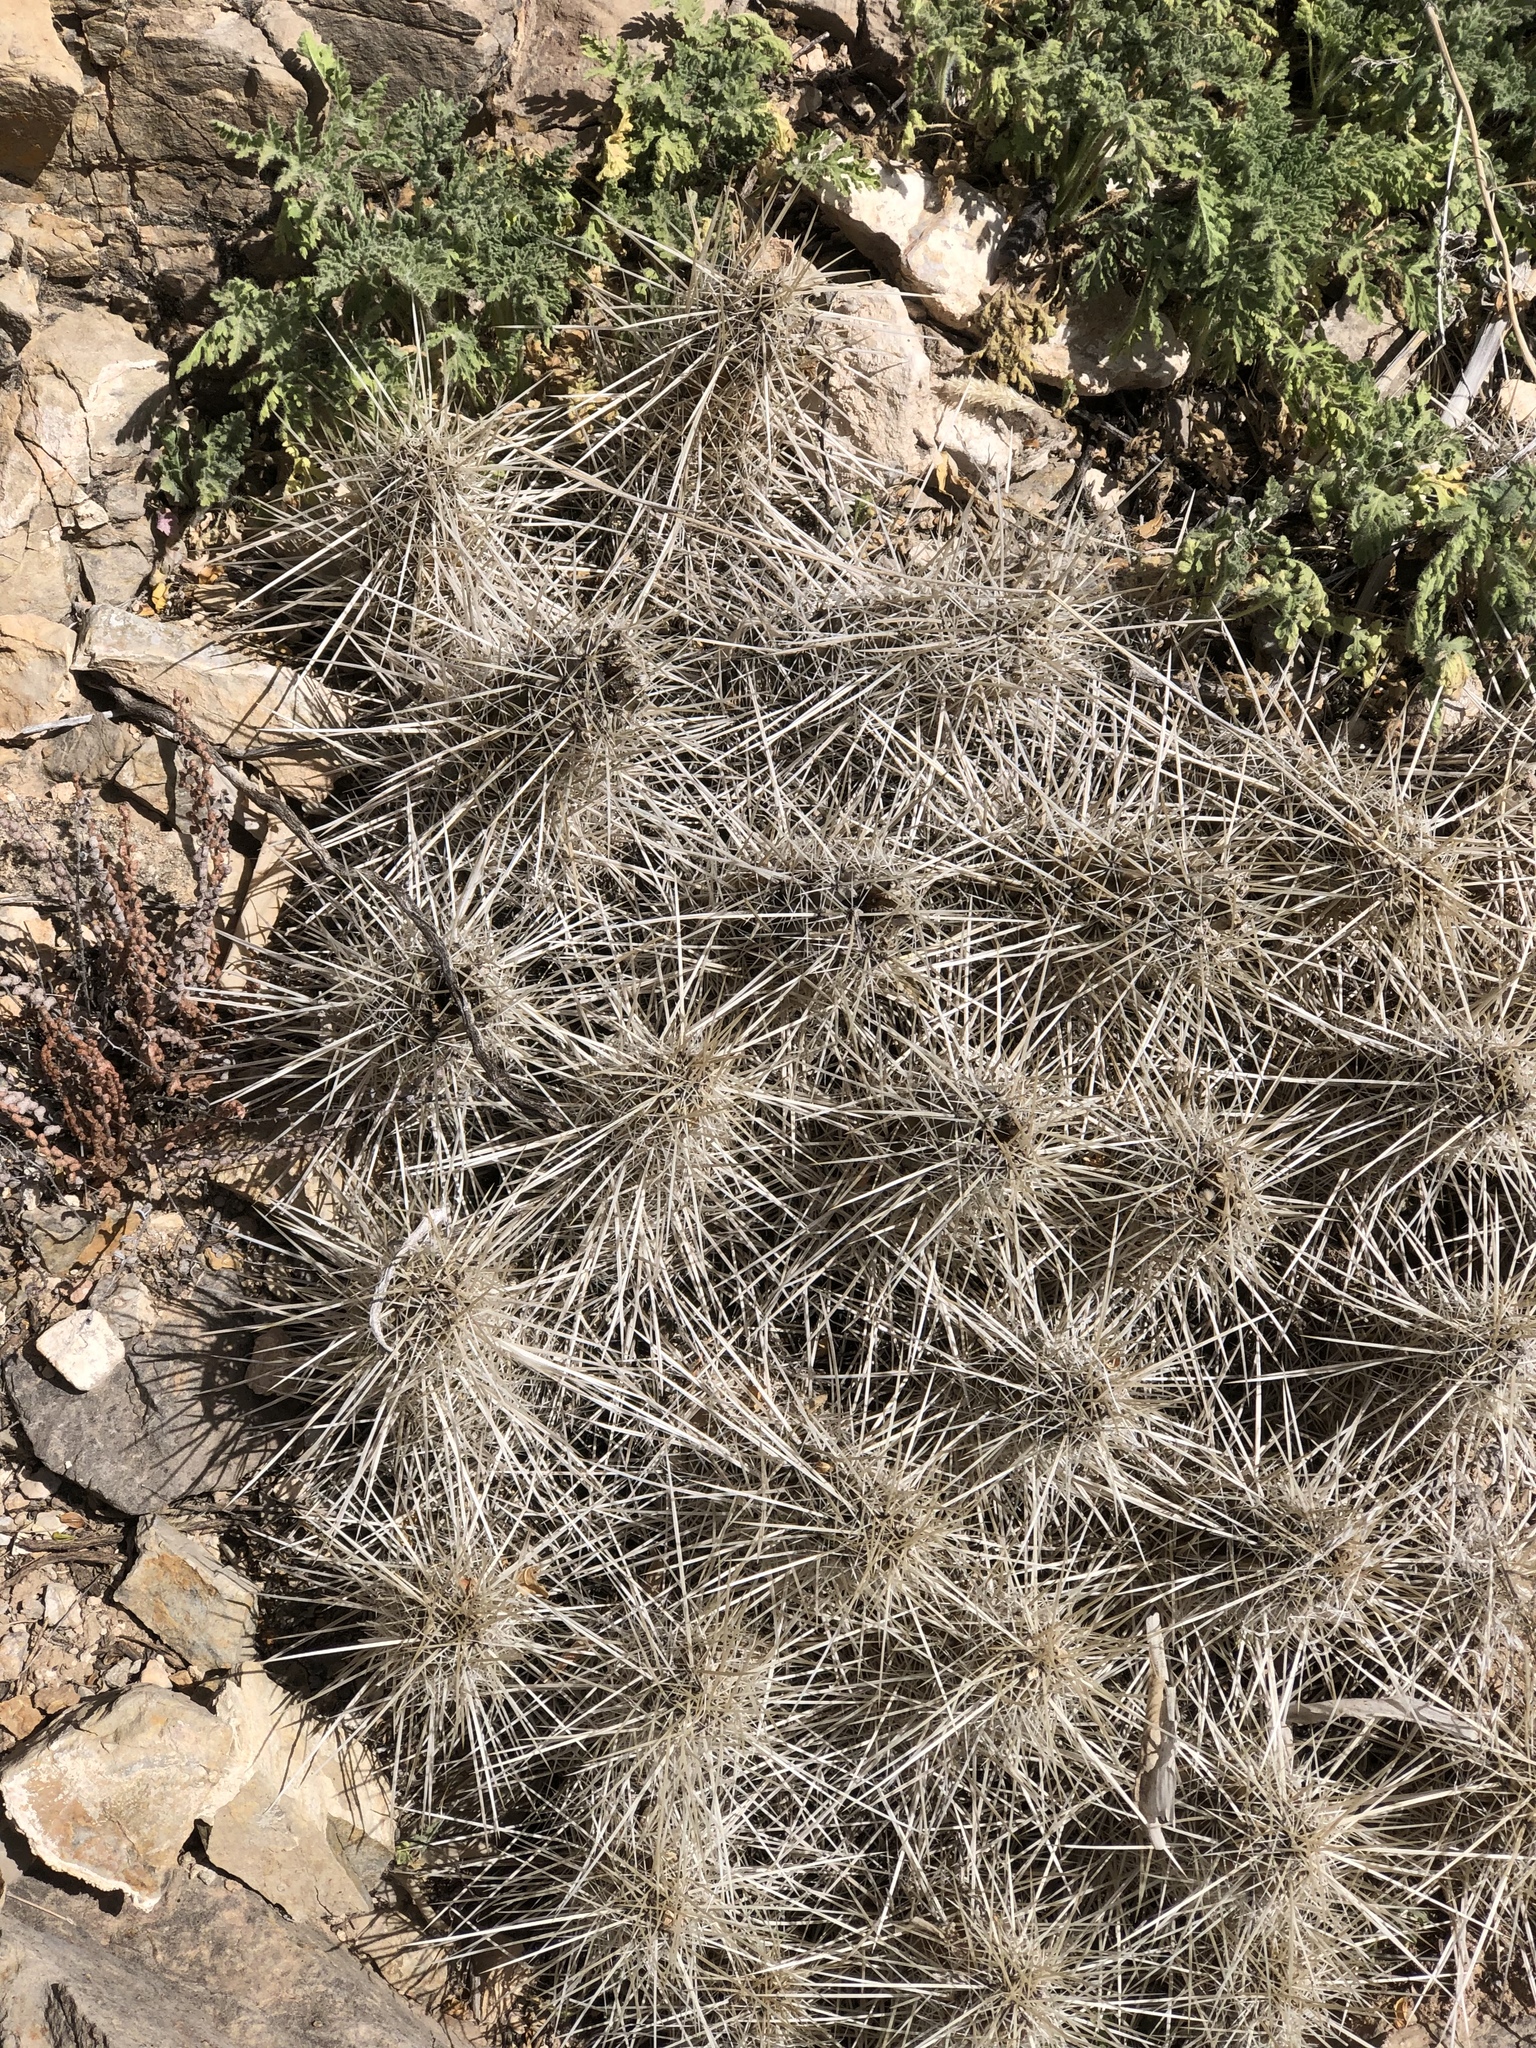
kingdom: Plantae
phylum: Tracheophyta
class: Magnoliopsida
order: Caryophyllales
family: Cactaceae
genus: Echinocereus
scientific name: Echinocereus stramineus
